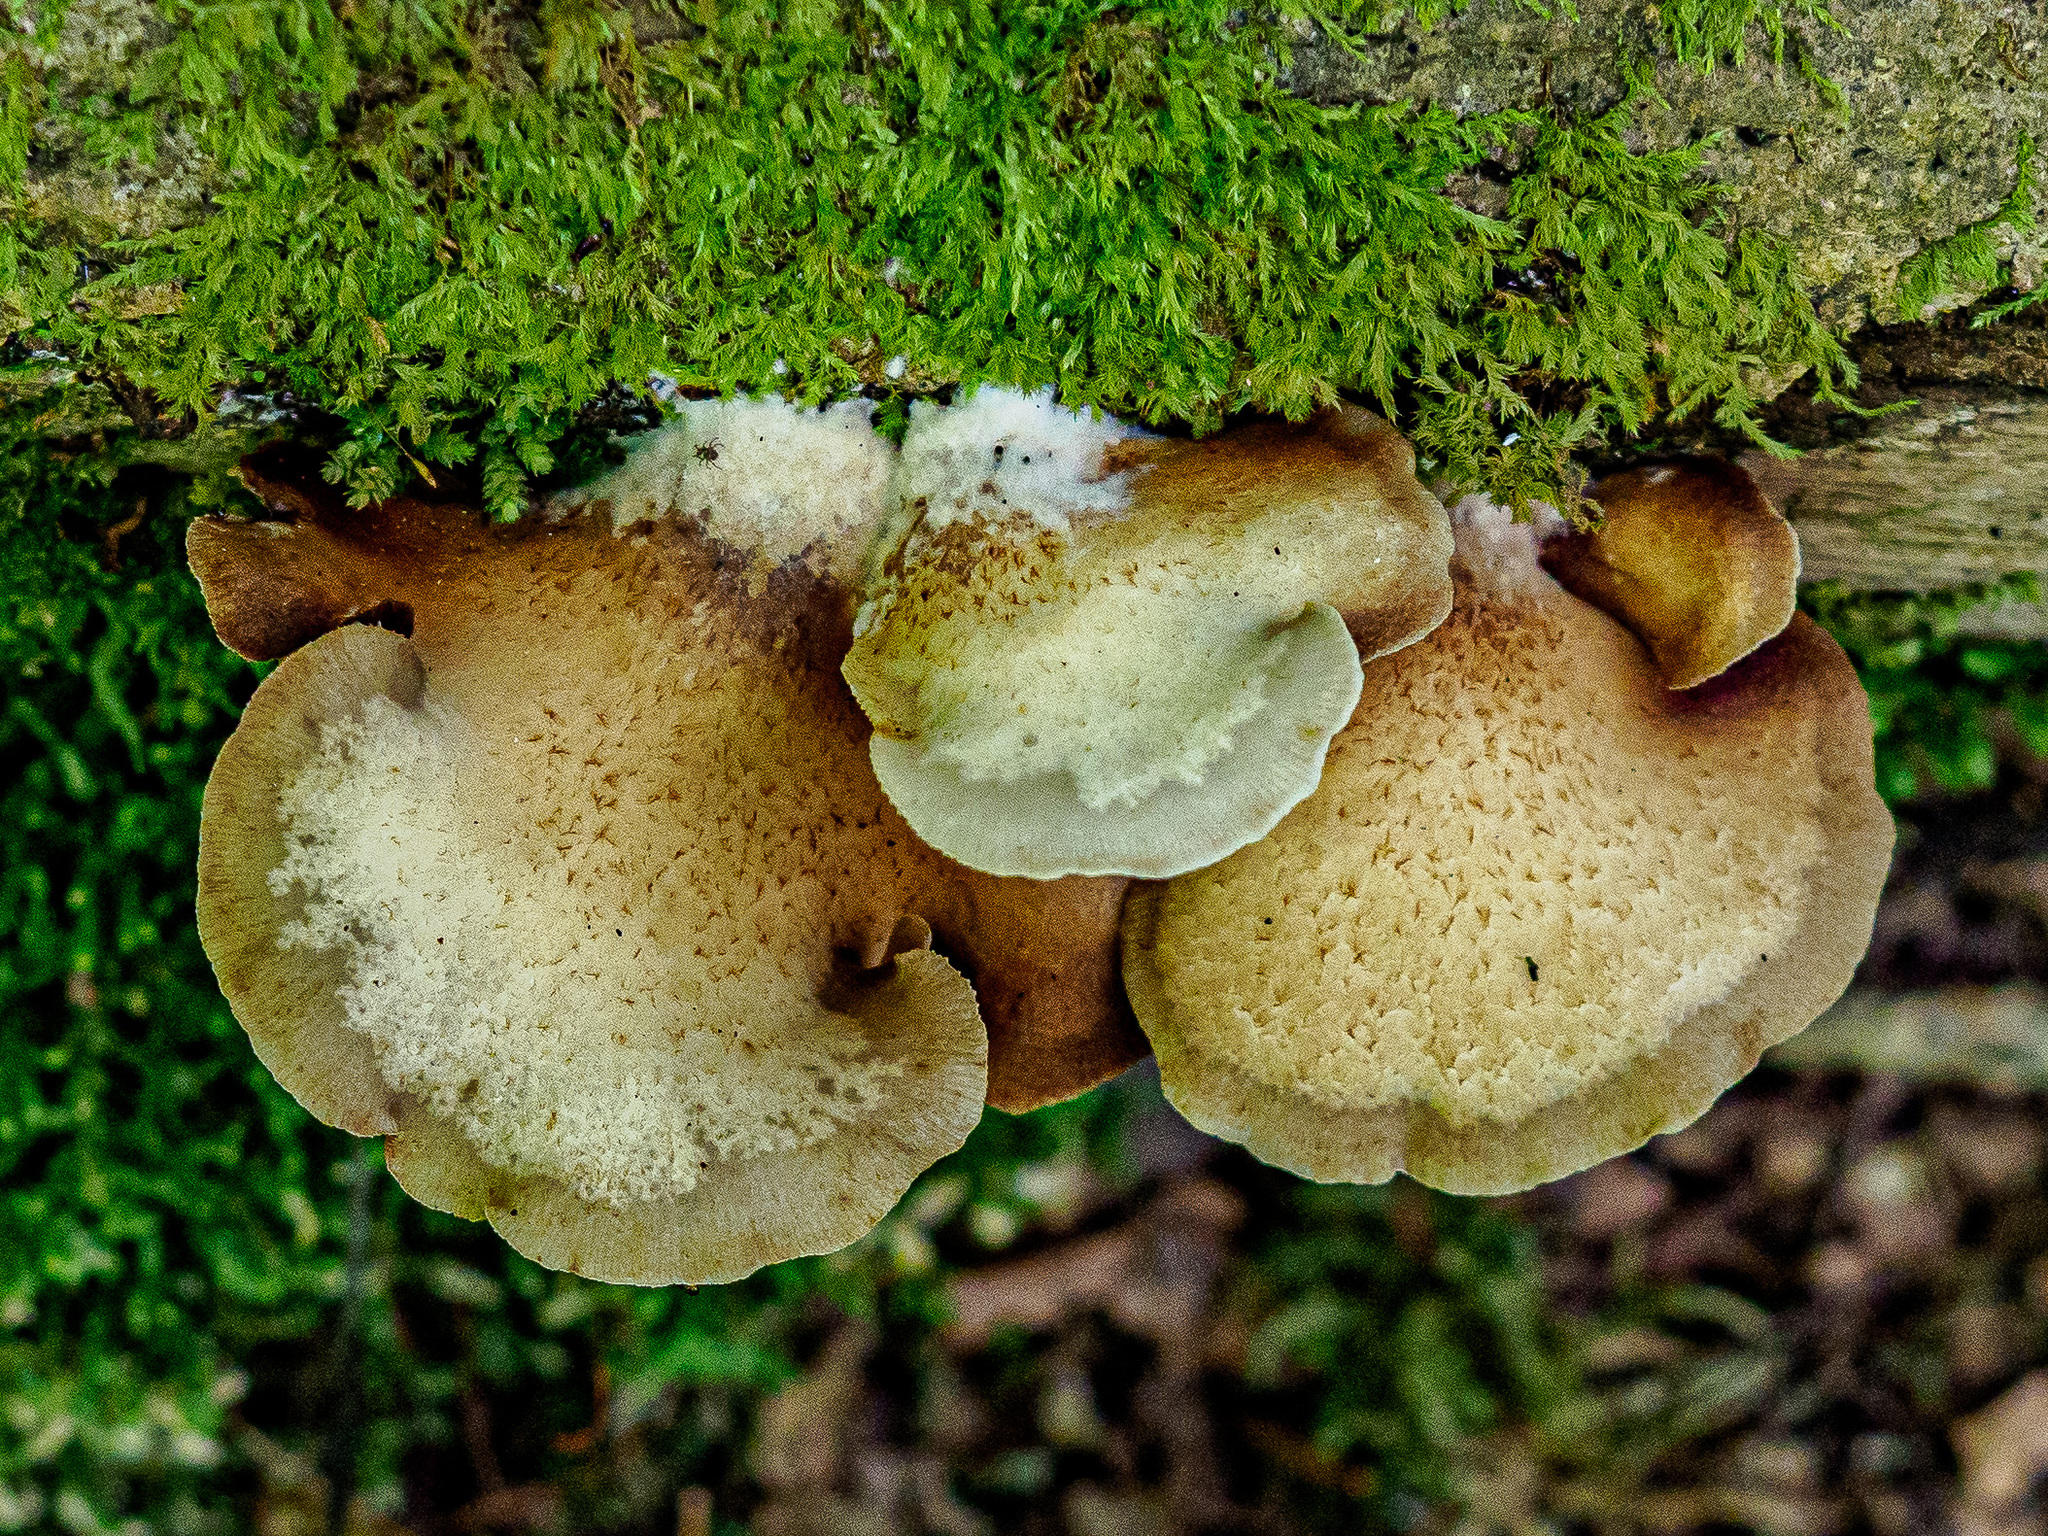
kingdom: Fungi
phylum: Basidiomycota
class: Agaricomycetes
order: Agaricales
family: Crepidotaceae
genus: Crepidotus
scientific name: Crepidotus calolepis
